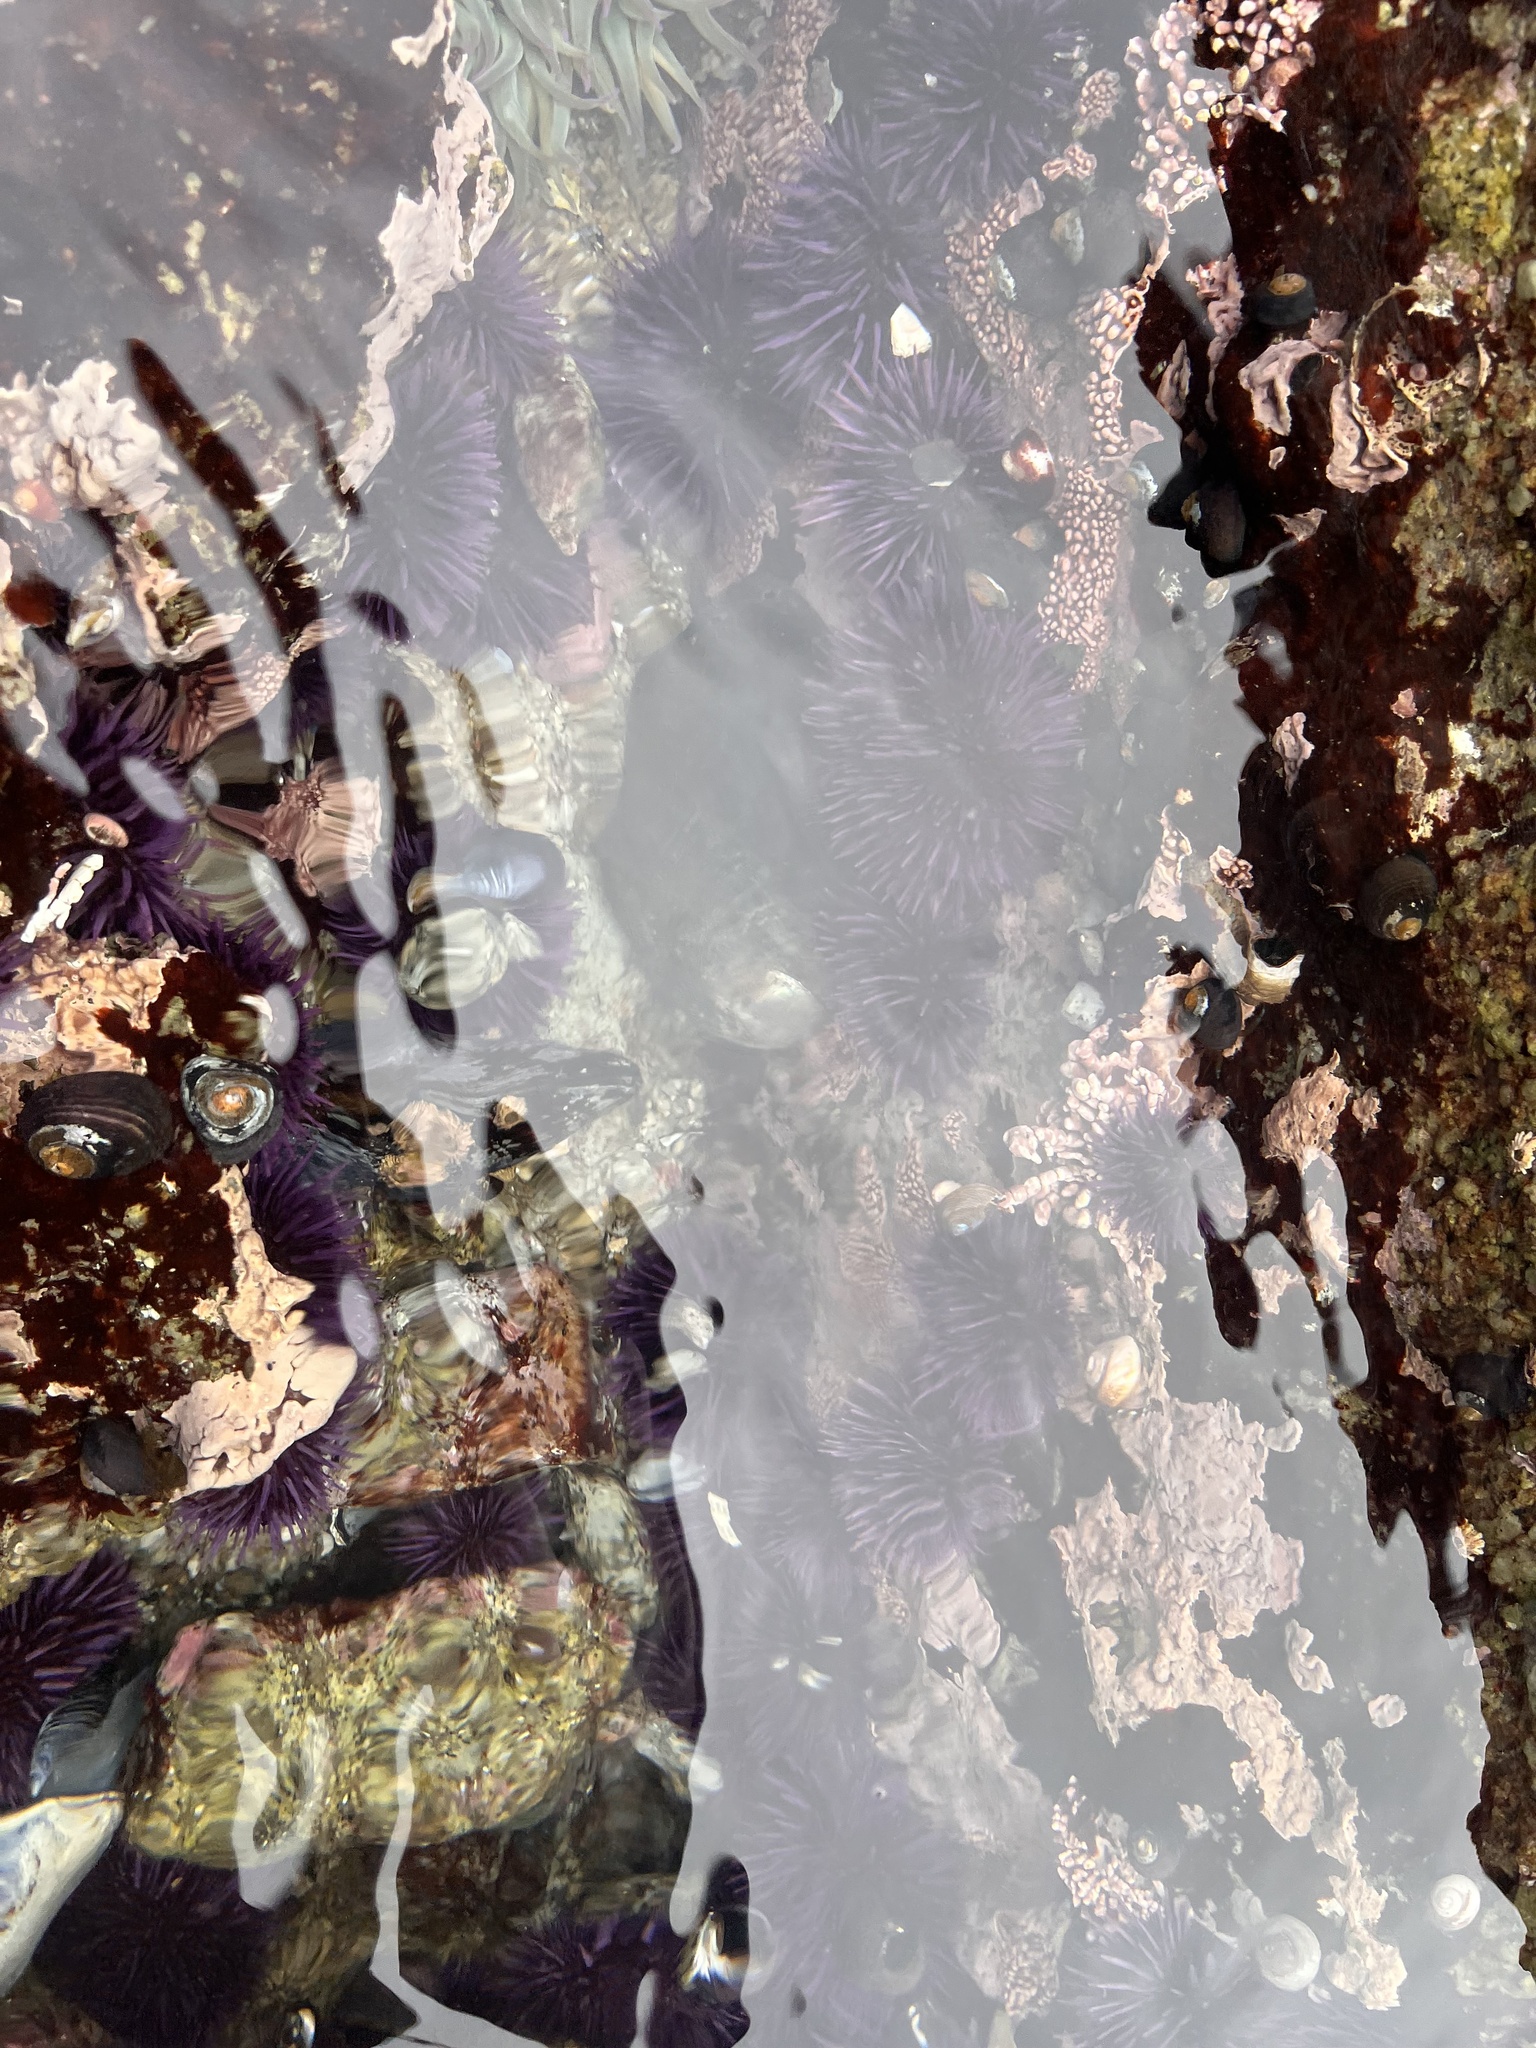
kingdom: Animalia
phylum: Mollusca
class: Gastropoda
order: Lepetellida
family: Haliotidae
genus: Haliotis
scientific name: Haliotis cracherodii
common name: Black abalone
